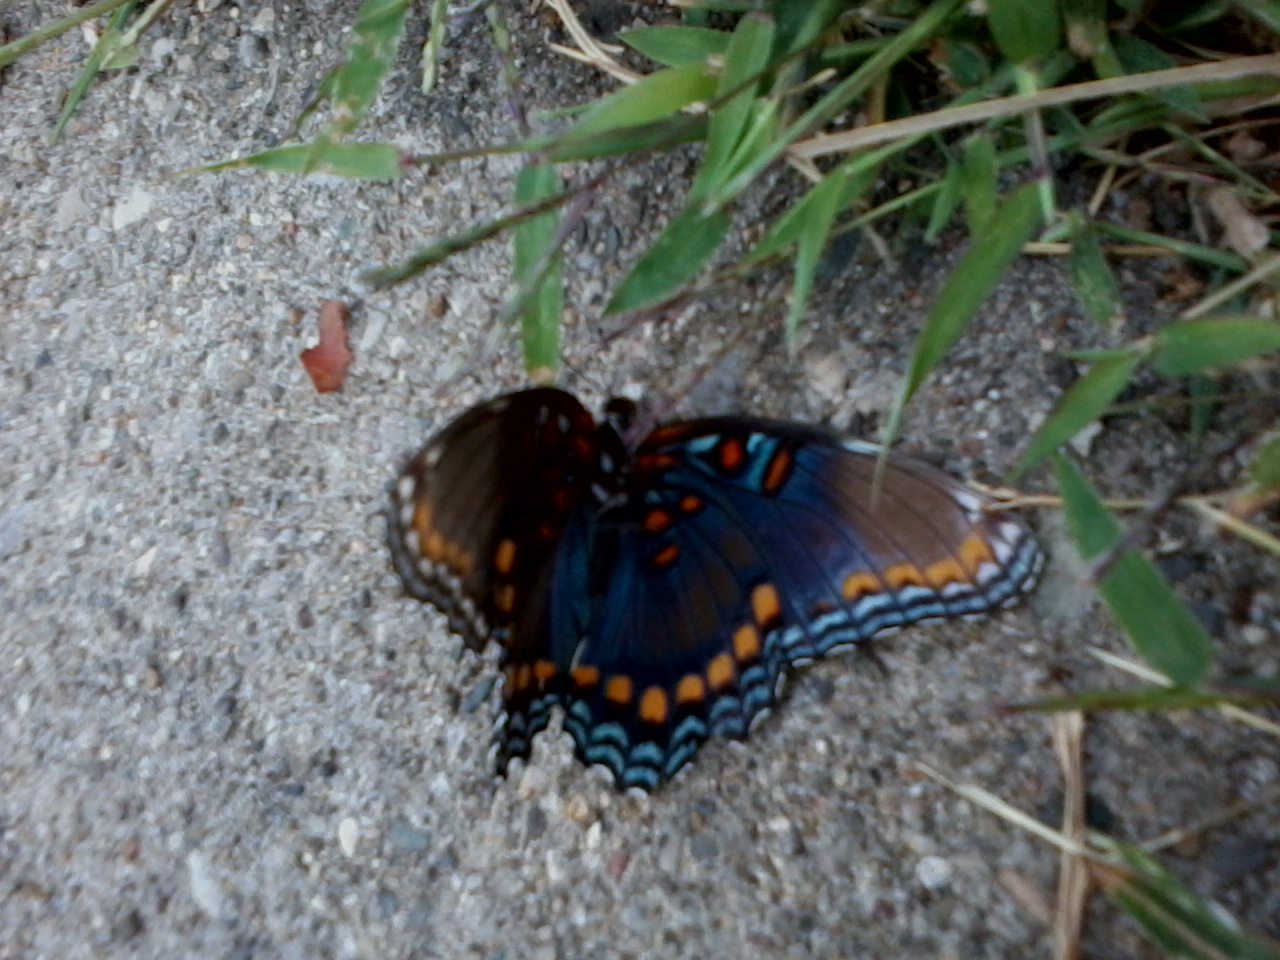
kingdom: Animalia
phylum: Arthropoda
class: Insecta
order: Lepidoptera
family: Nymphalidae
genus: Limenitis
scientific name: Limenitis astyanax
